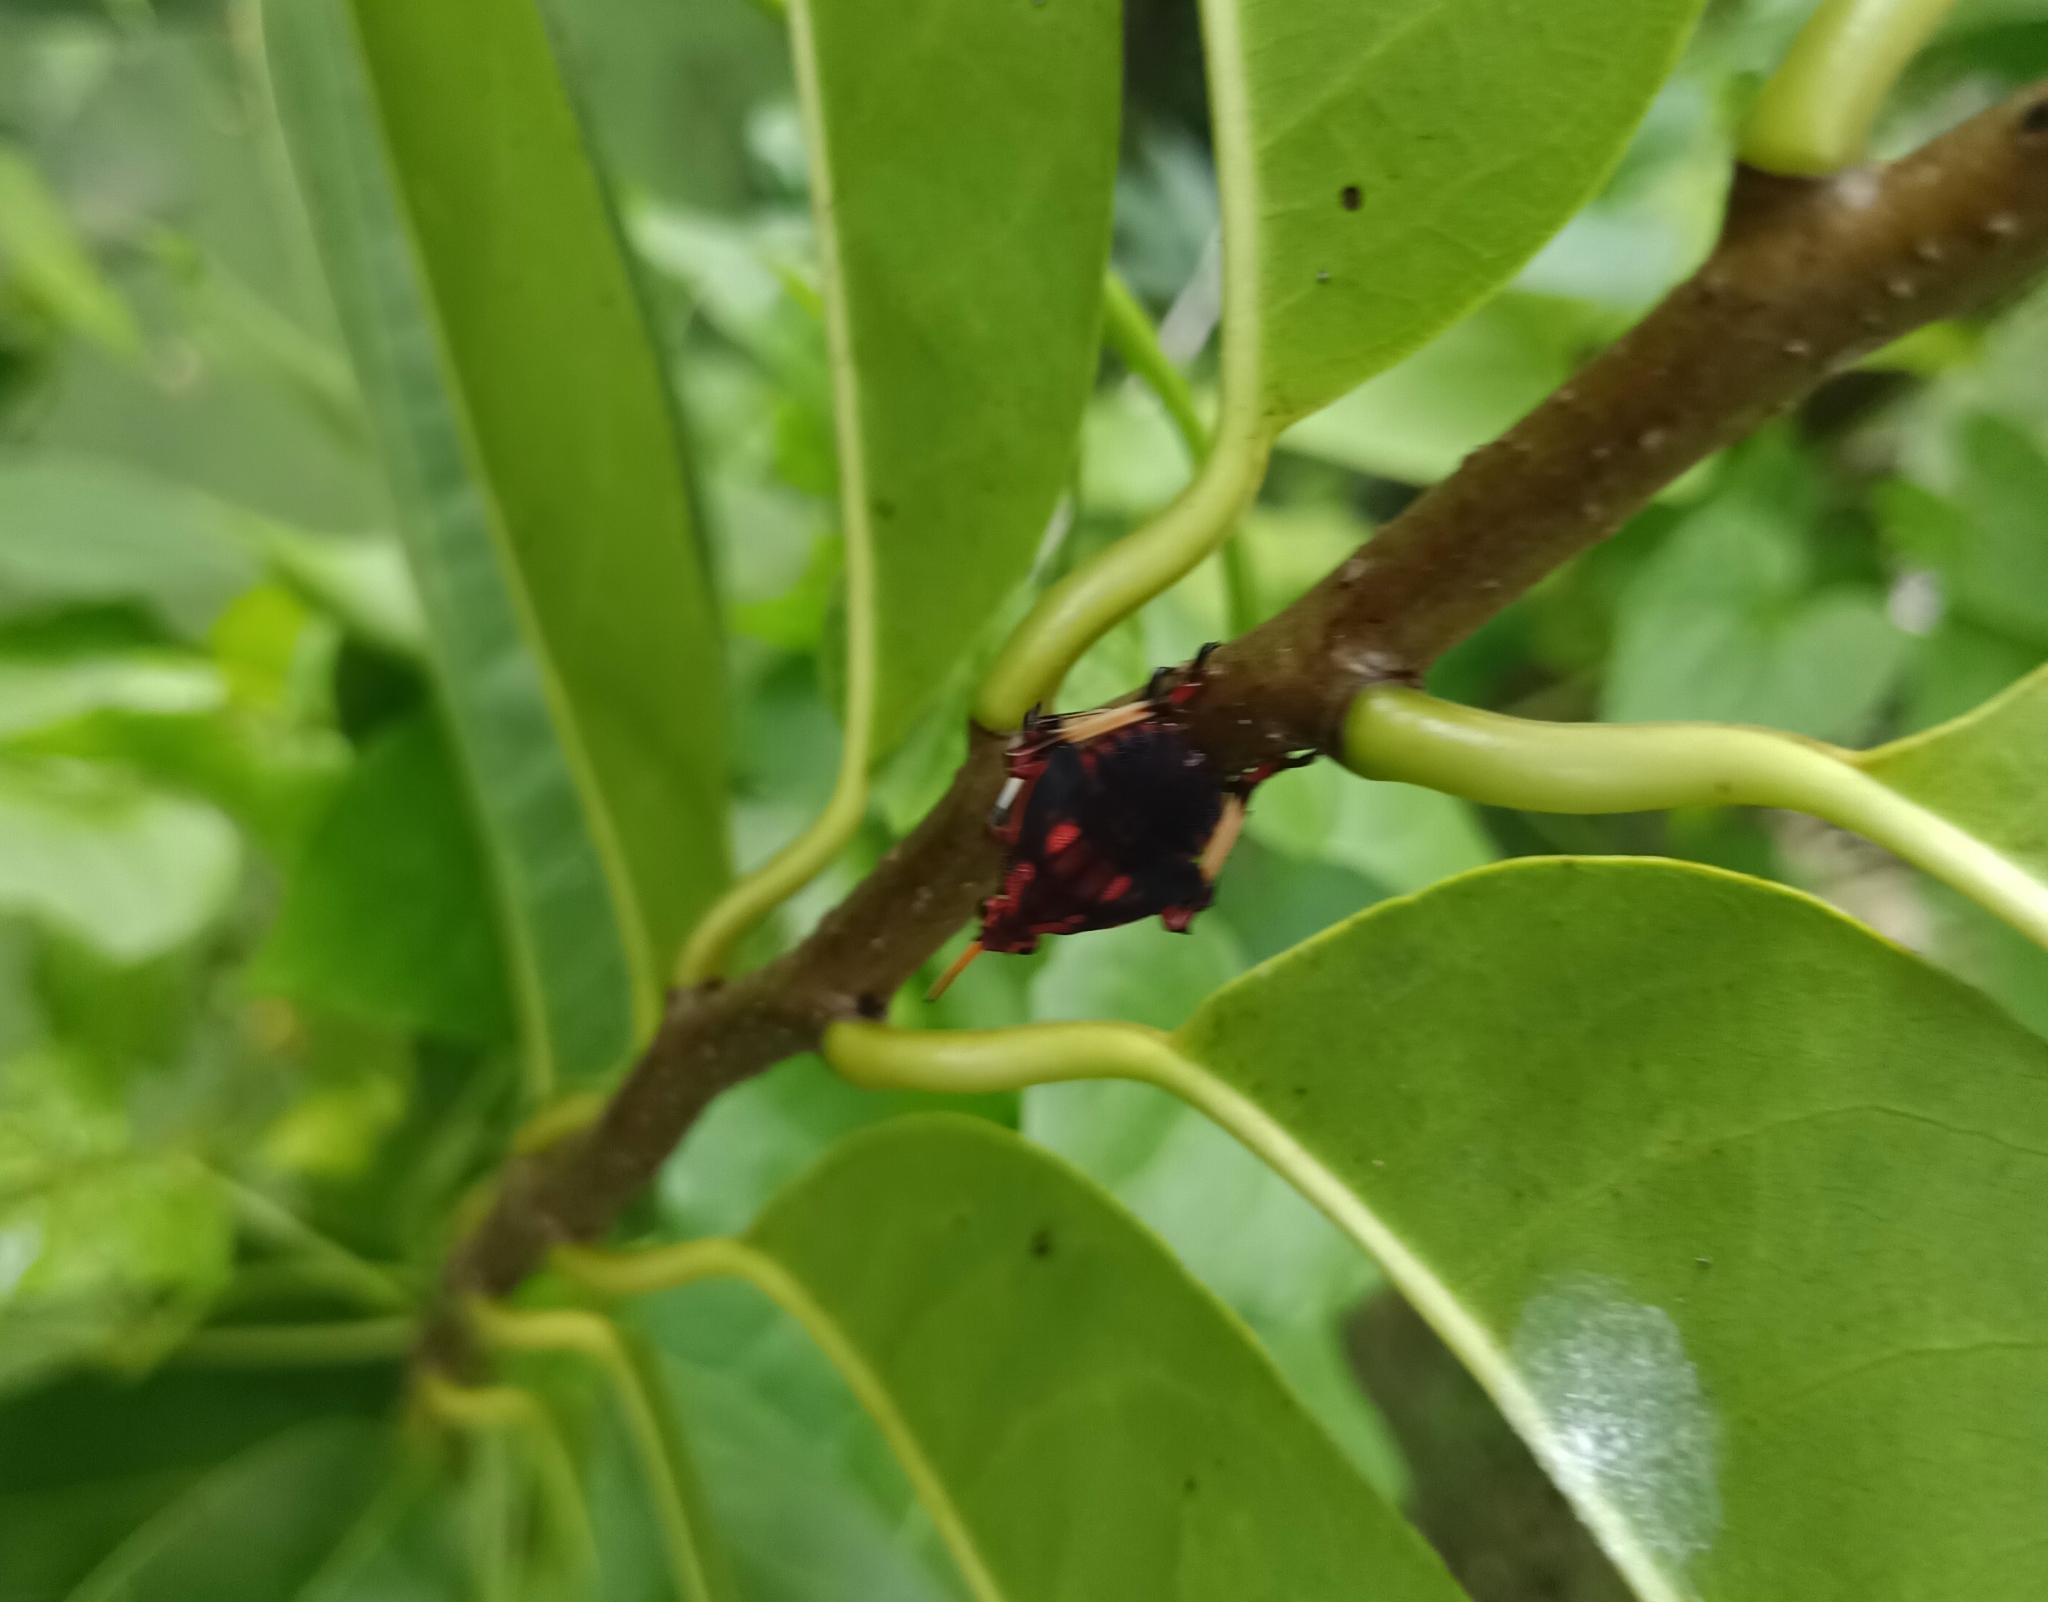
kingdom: Animalia
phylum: Arthropoda
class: Insecta
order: Hemiptera
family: Fulgoridae
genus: Kalidasa
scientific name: Kalidasa lanata
